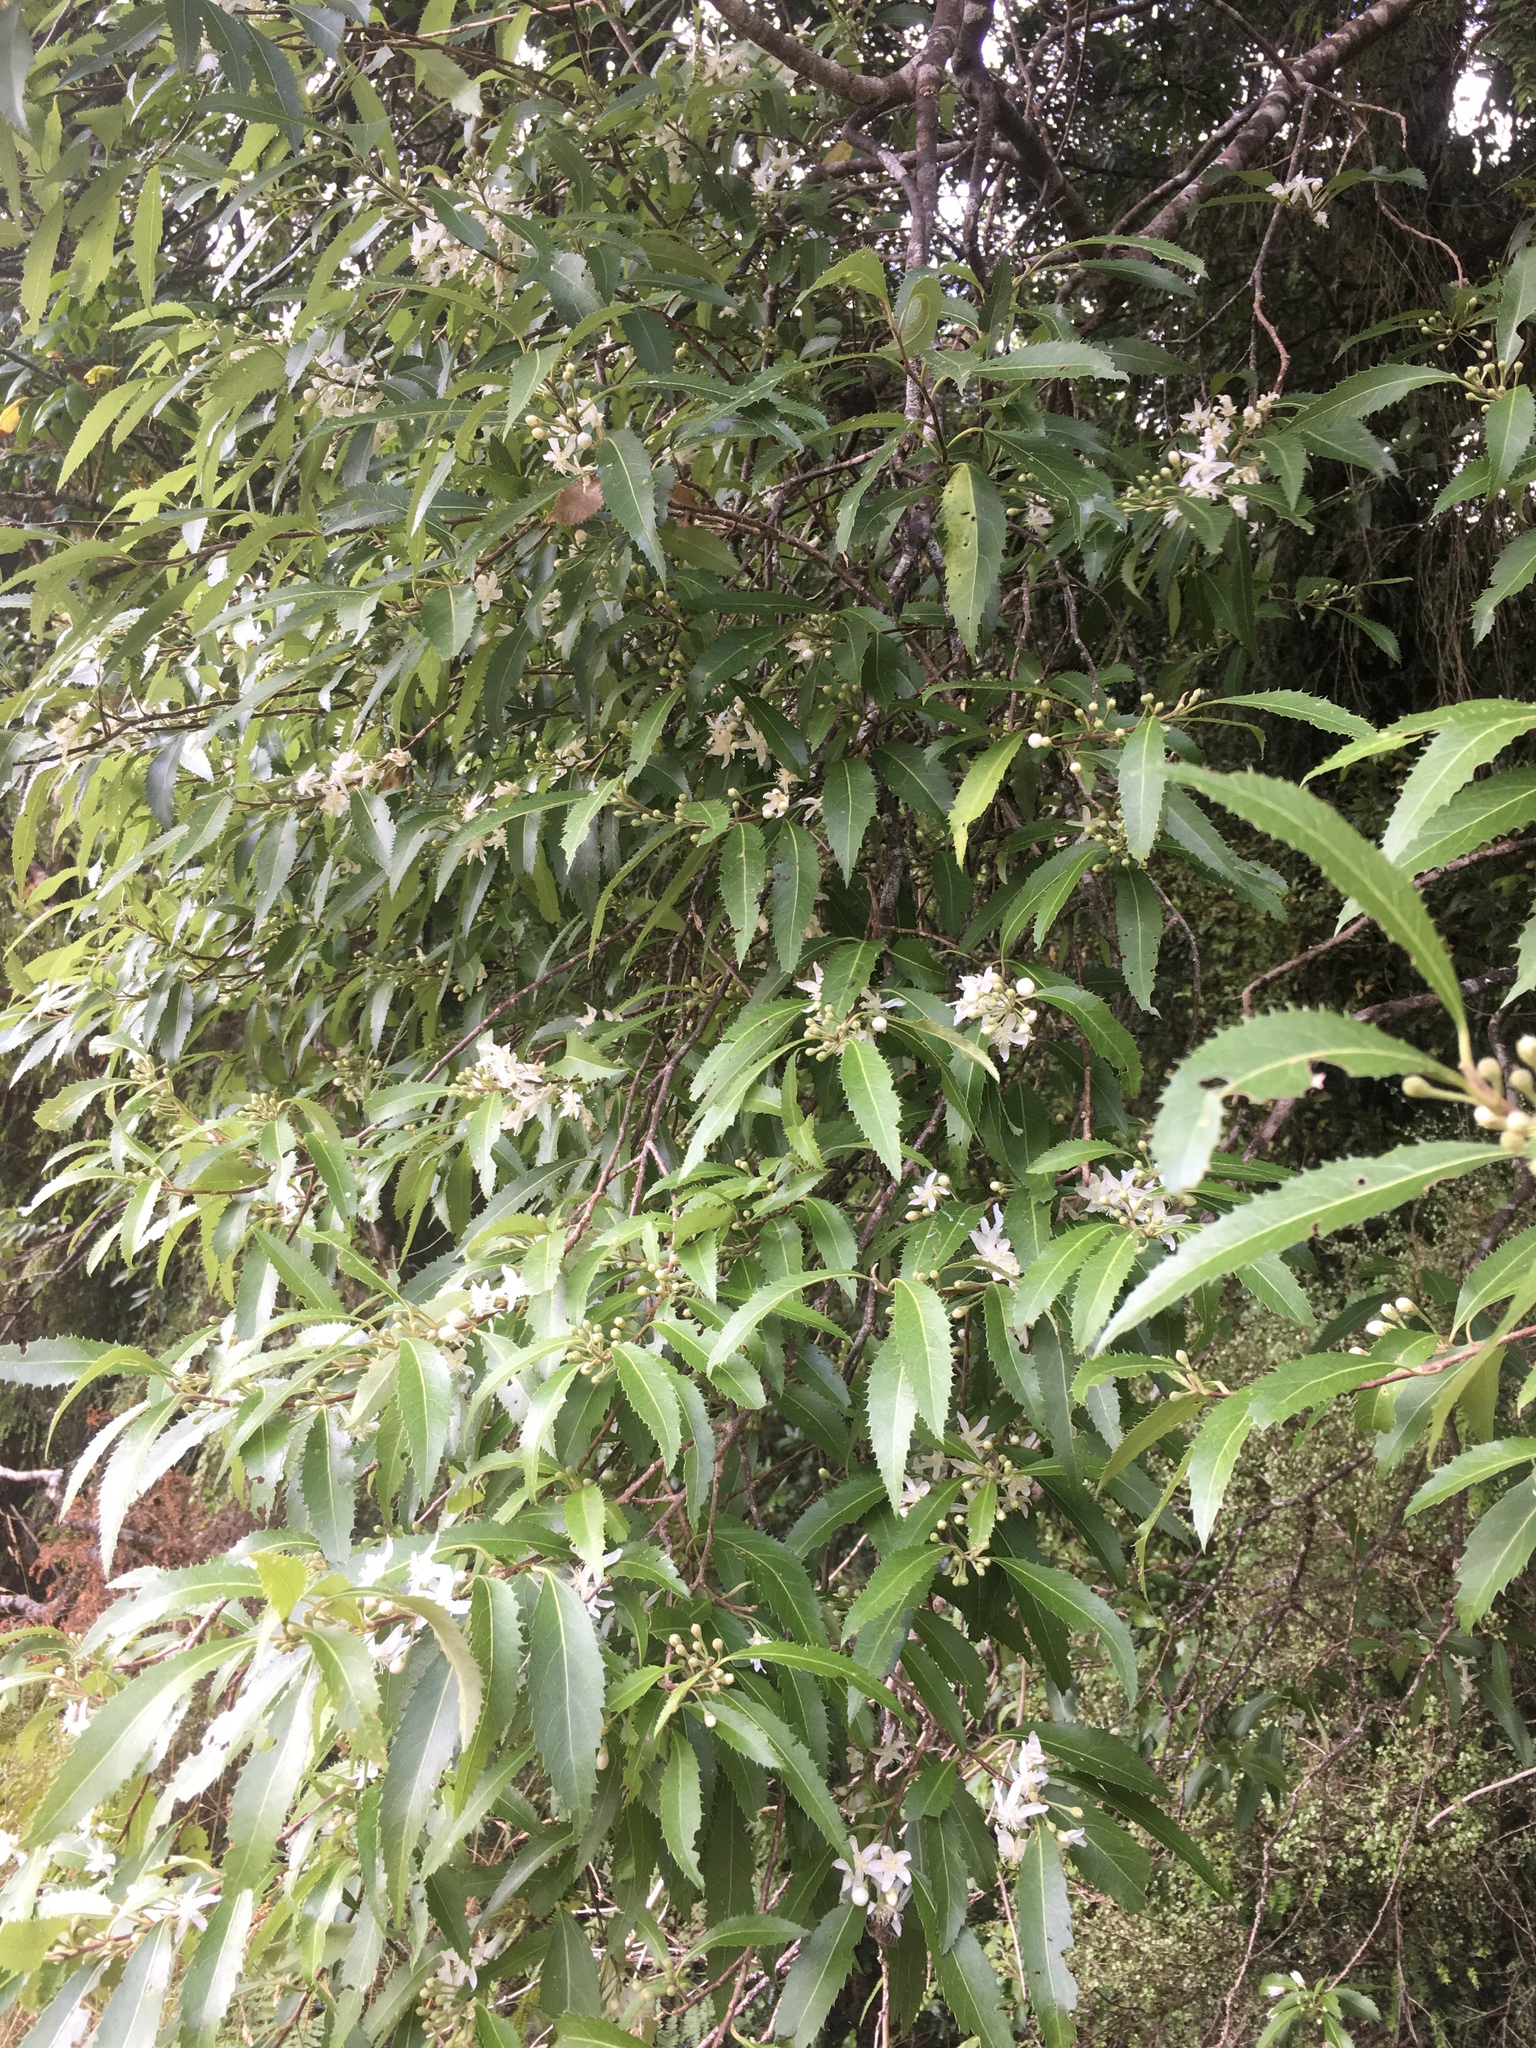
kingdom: Plantae
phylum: Tracheophyta
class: Magnoliopsida
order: Malvales
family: Malvaceae
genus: Hoheria
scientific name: Hoheria sexstylosa
